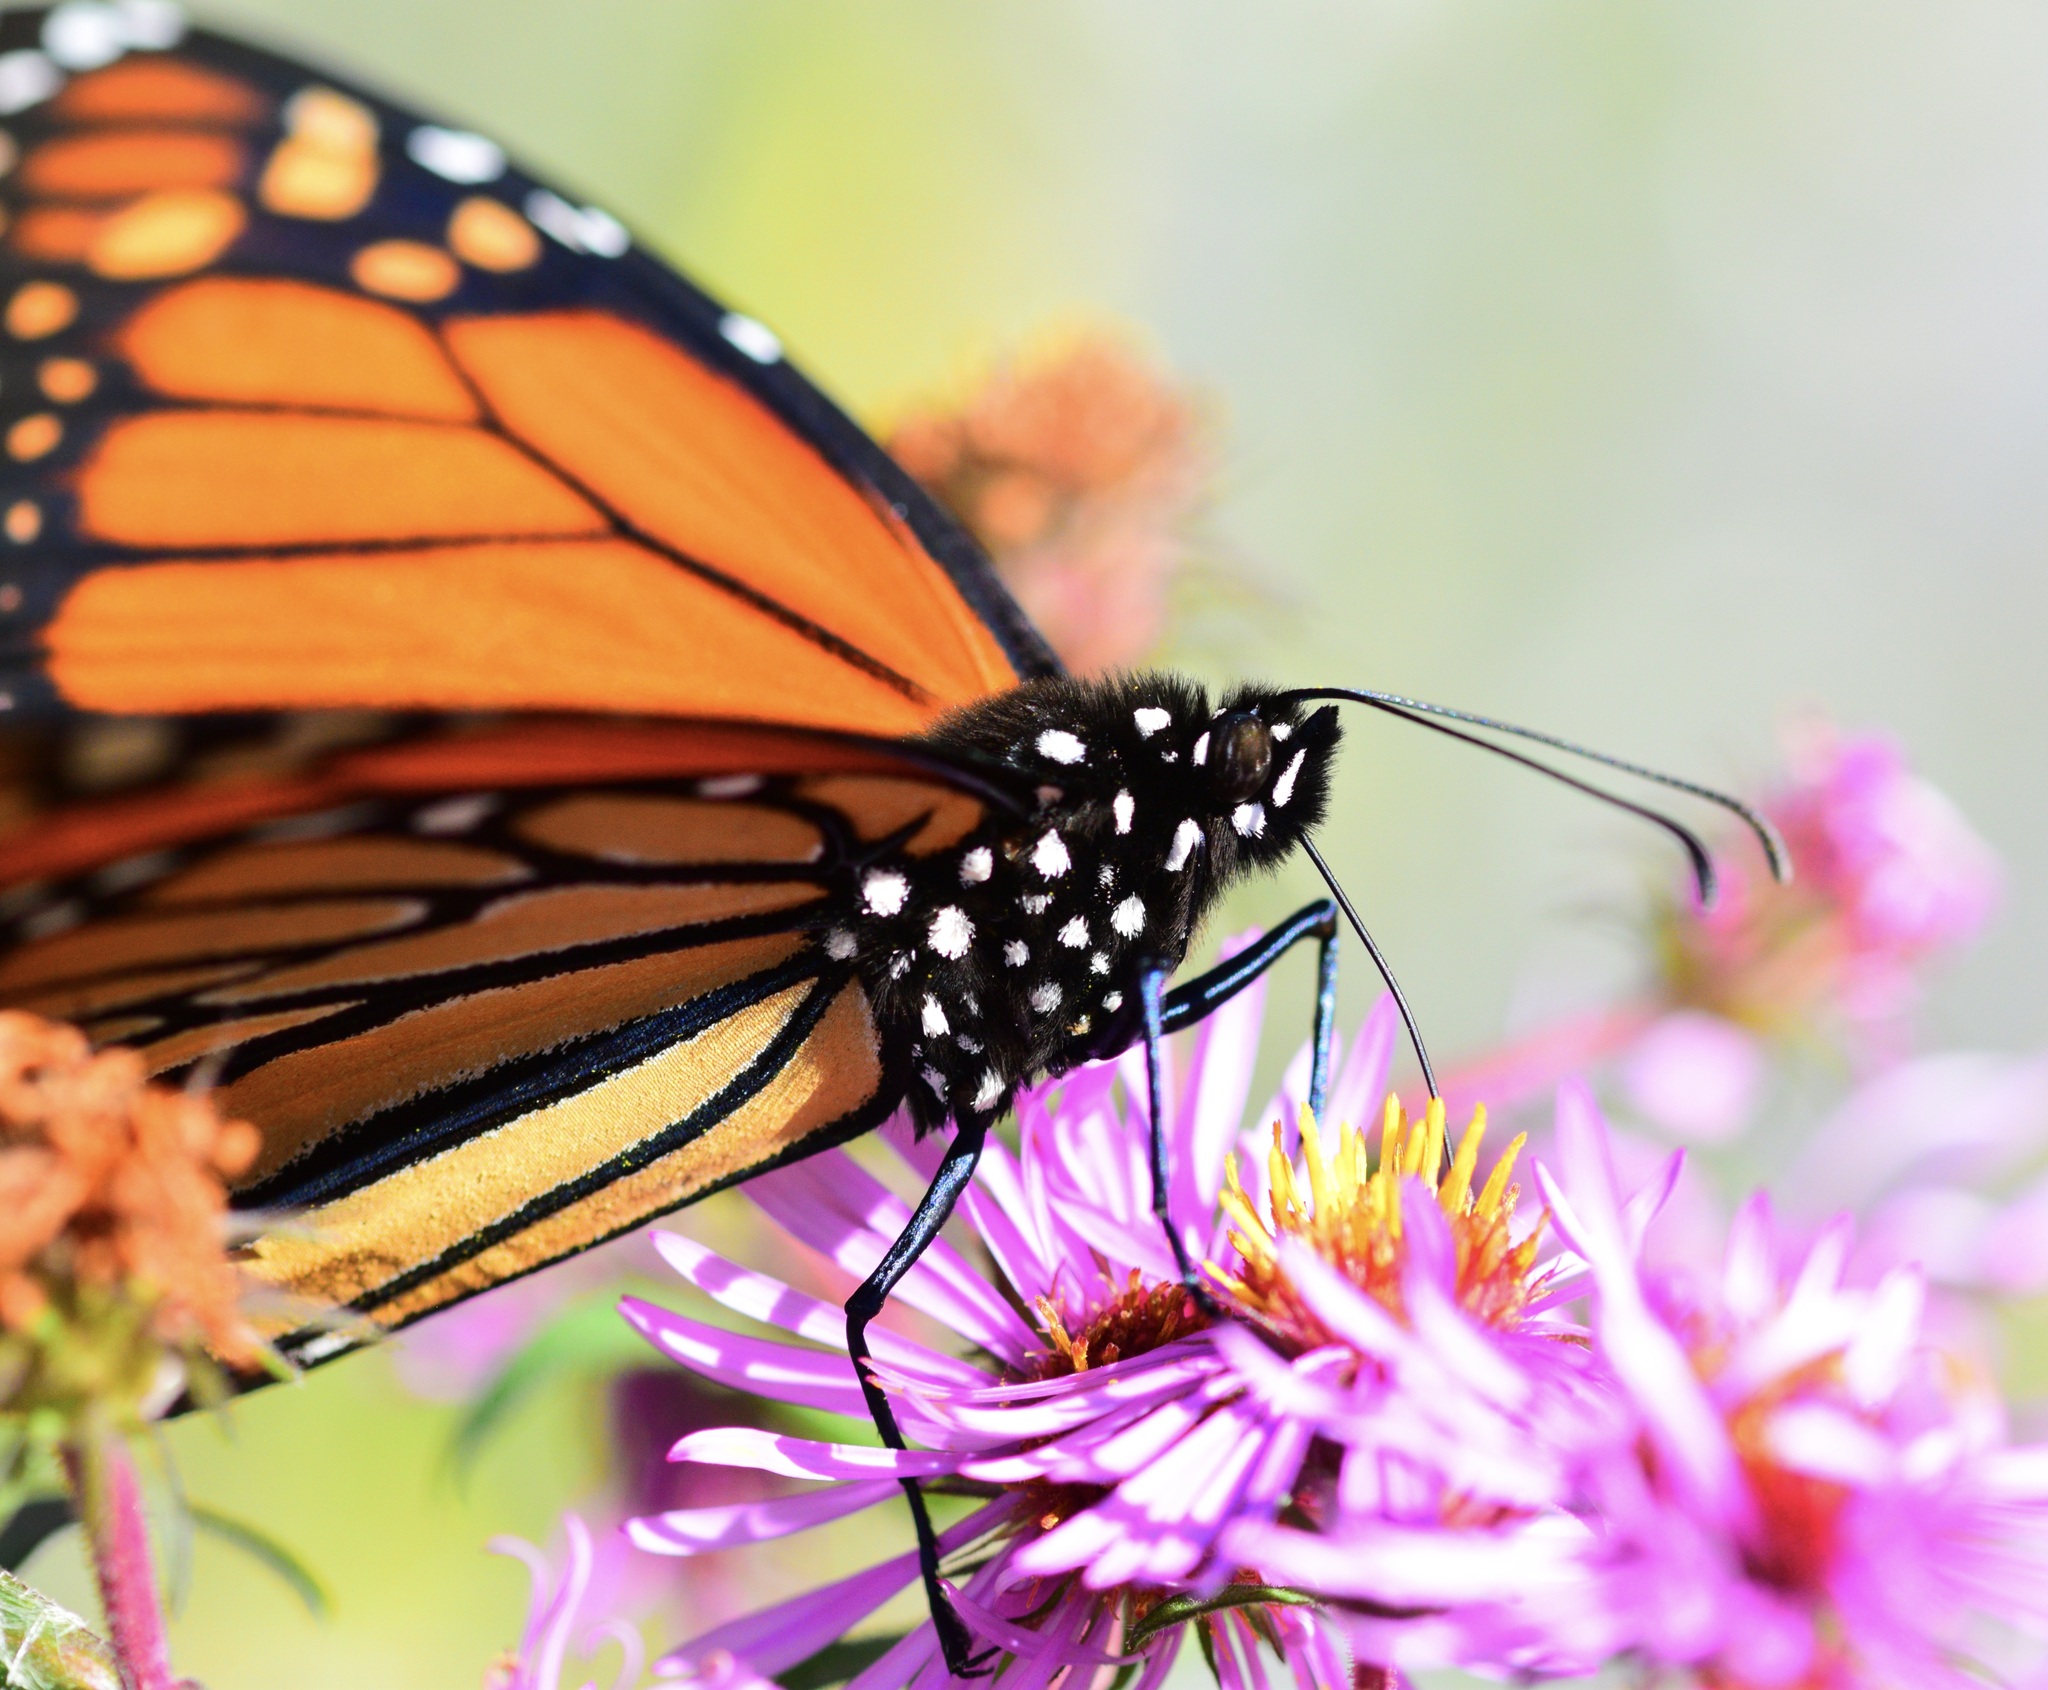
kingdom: Animalia
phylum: Arthropoda
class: Insecta
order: Lepidoptera
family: Nymphalidae
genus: Danaus
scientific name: Danaus plexippus
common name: Monarch
